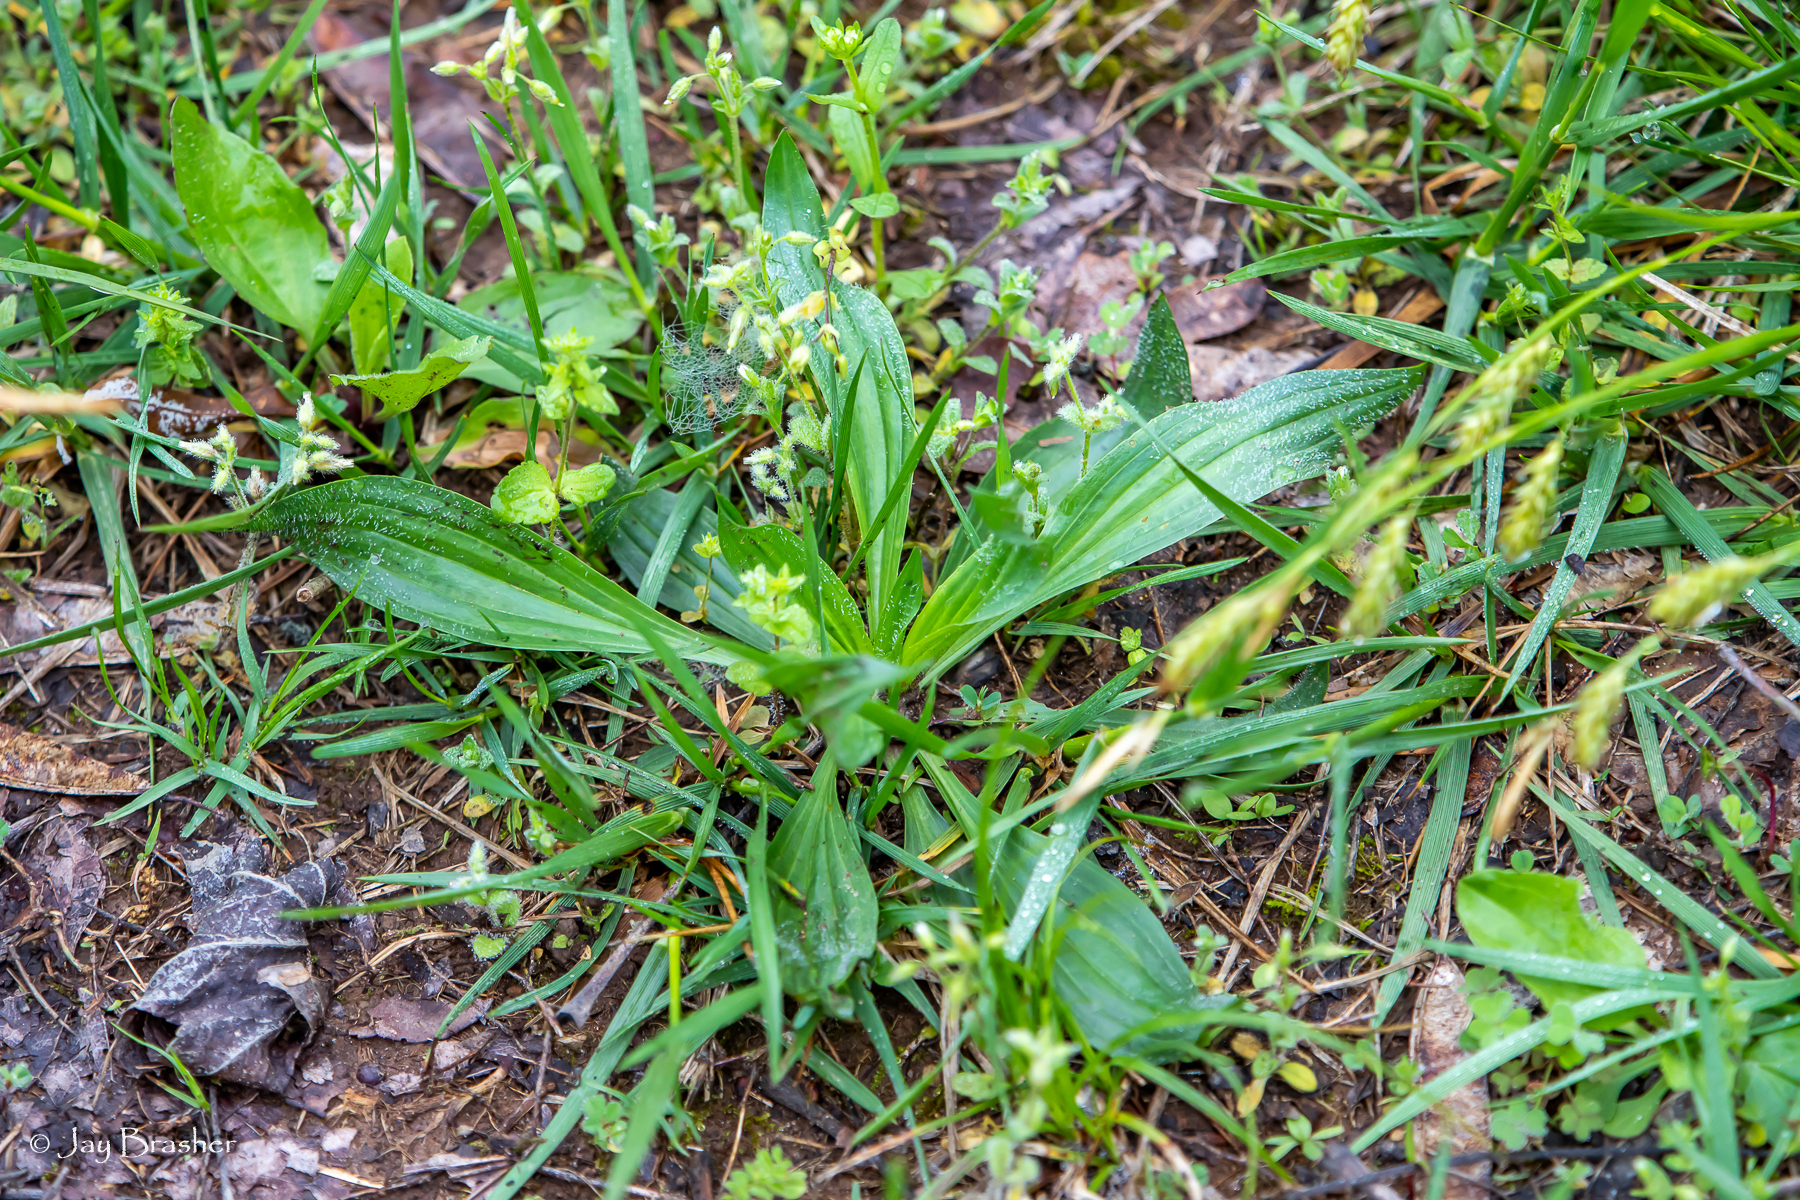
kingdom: Plantae
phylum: Tracheophyta
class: Magnoliopsida
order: Lamiales
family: Plantaginaceae
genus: Plantago
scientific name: Plantago lanceolata
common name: Ribwort plantain
